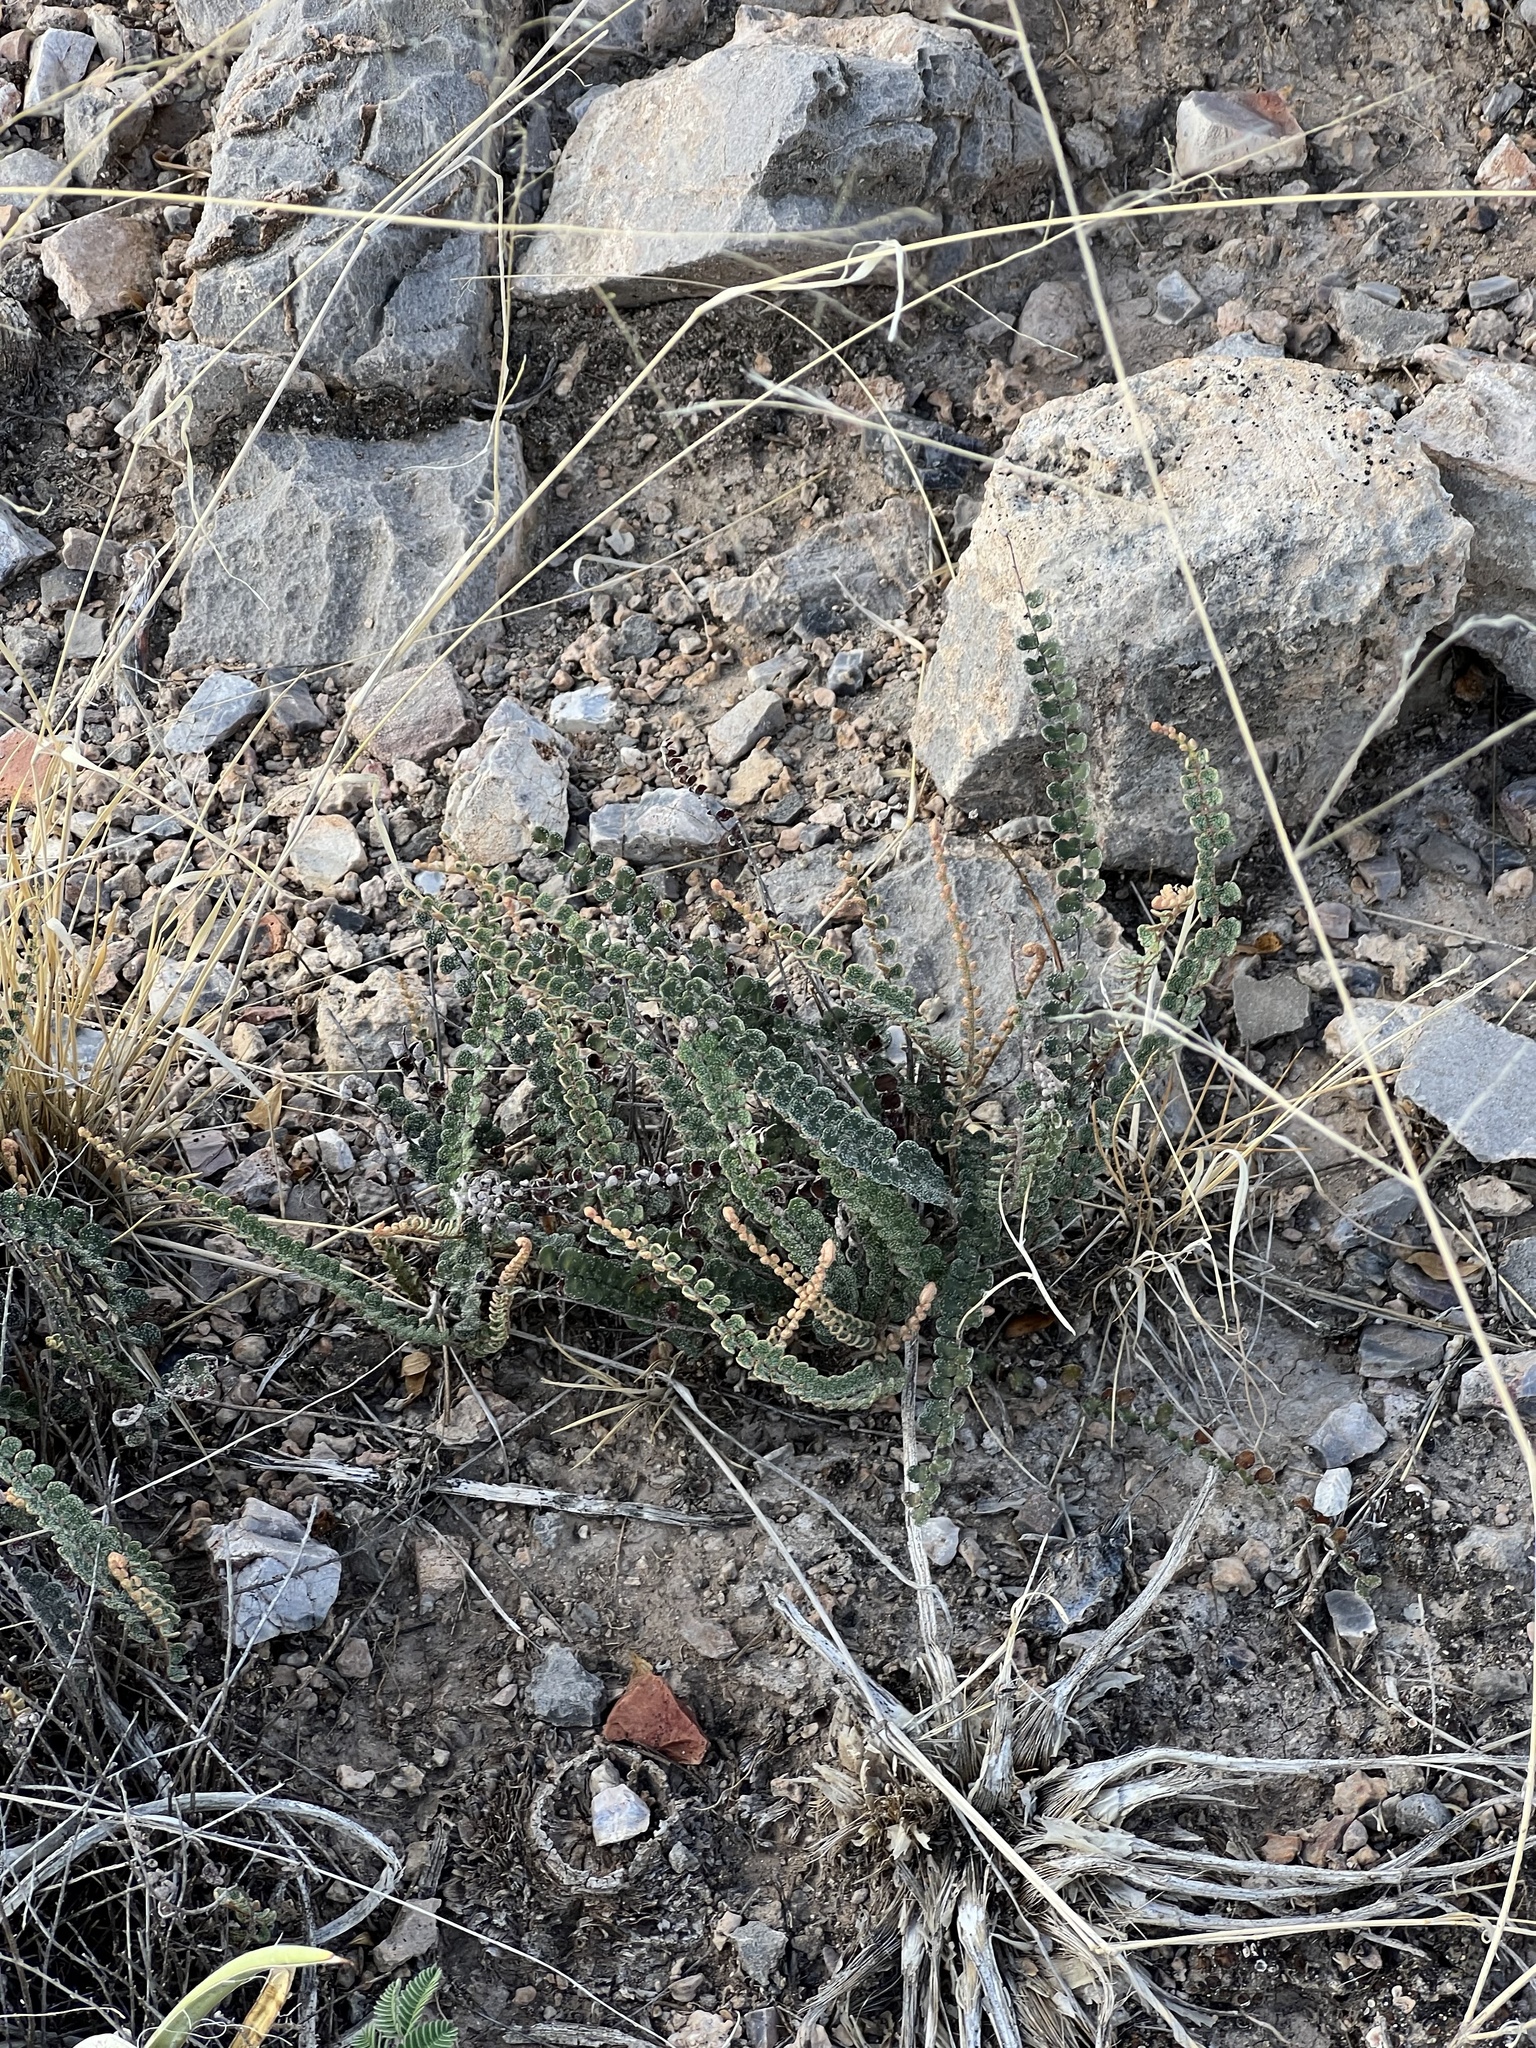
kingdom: Plantae
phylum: Tracheophyta
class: Polypodiopsida
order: Polypodiales
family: Pteridaceae
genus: Astrolepis
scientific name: Astrolepis cochisensis
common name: Scaly cloak fern
